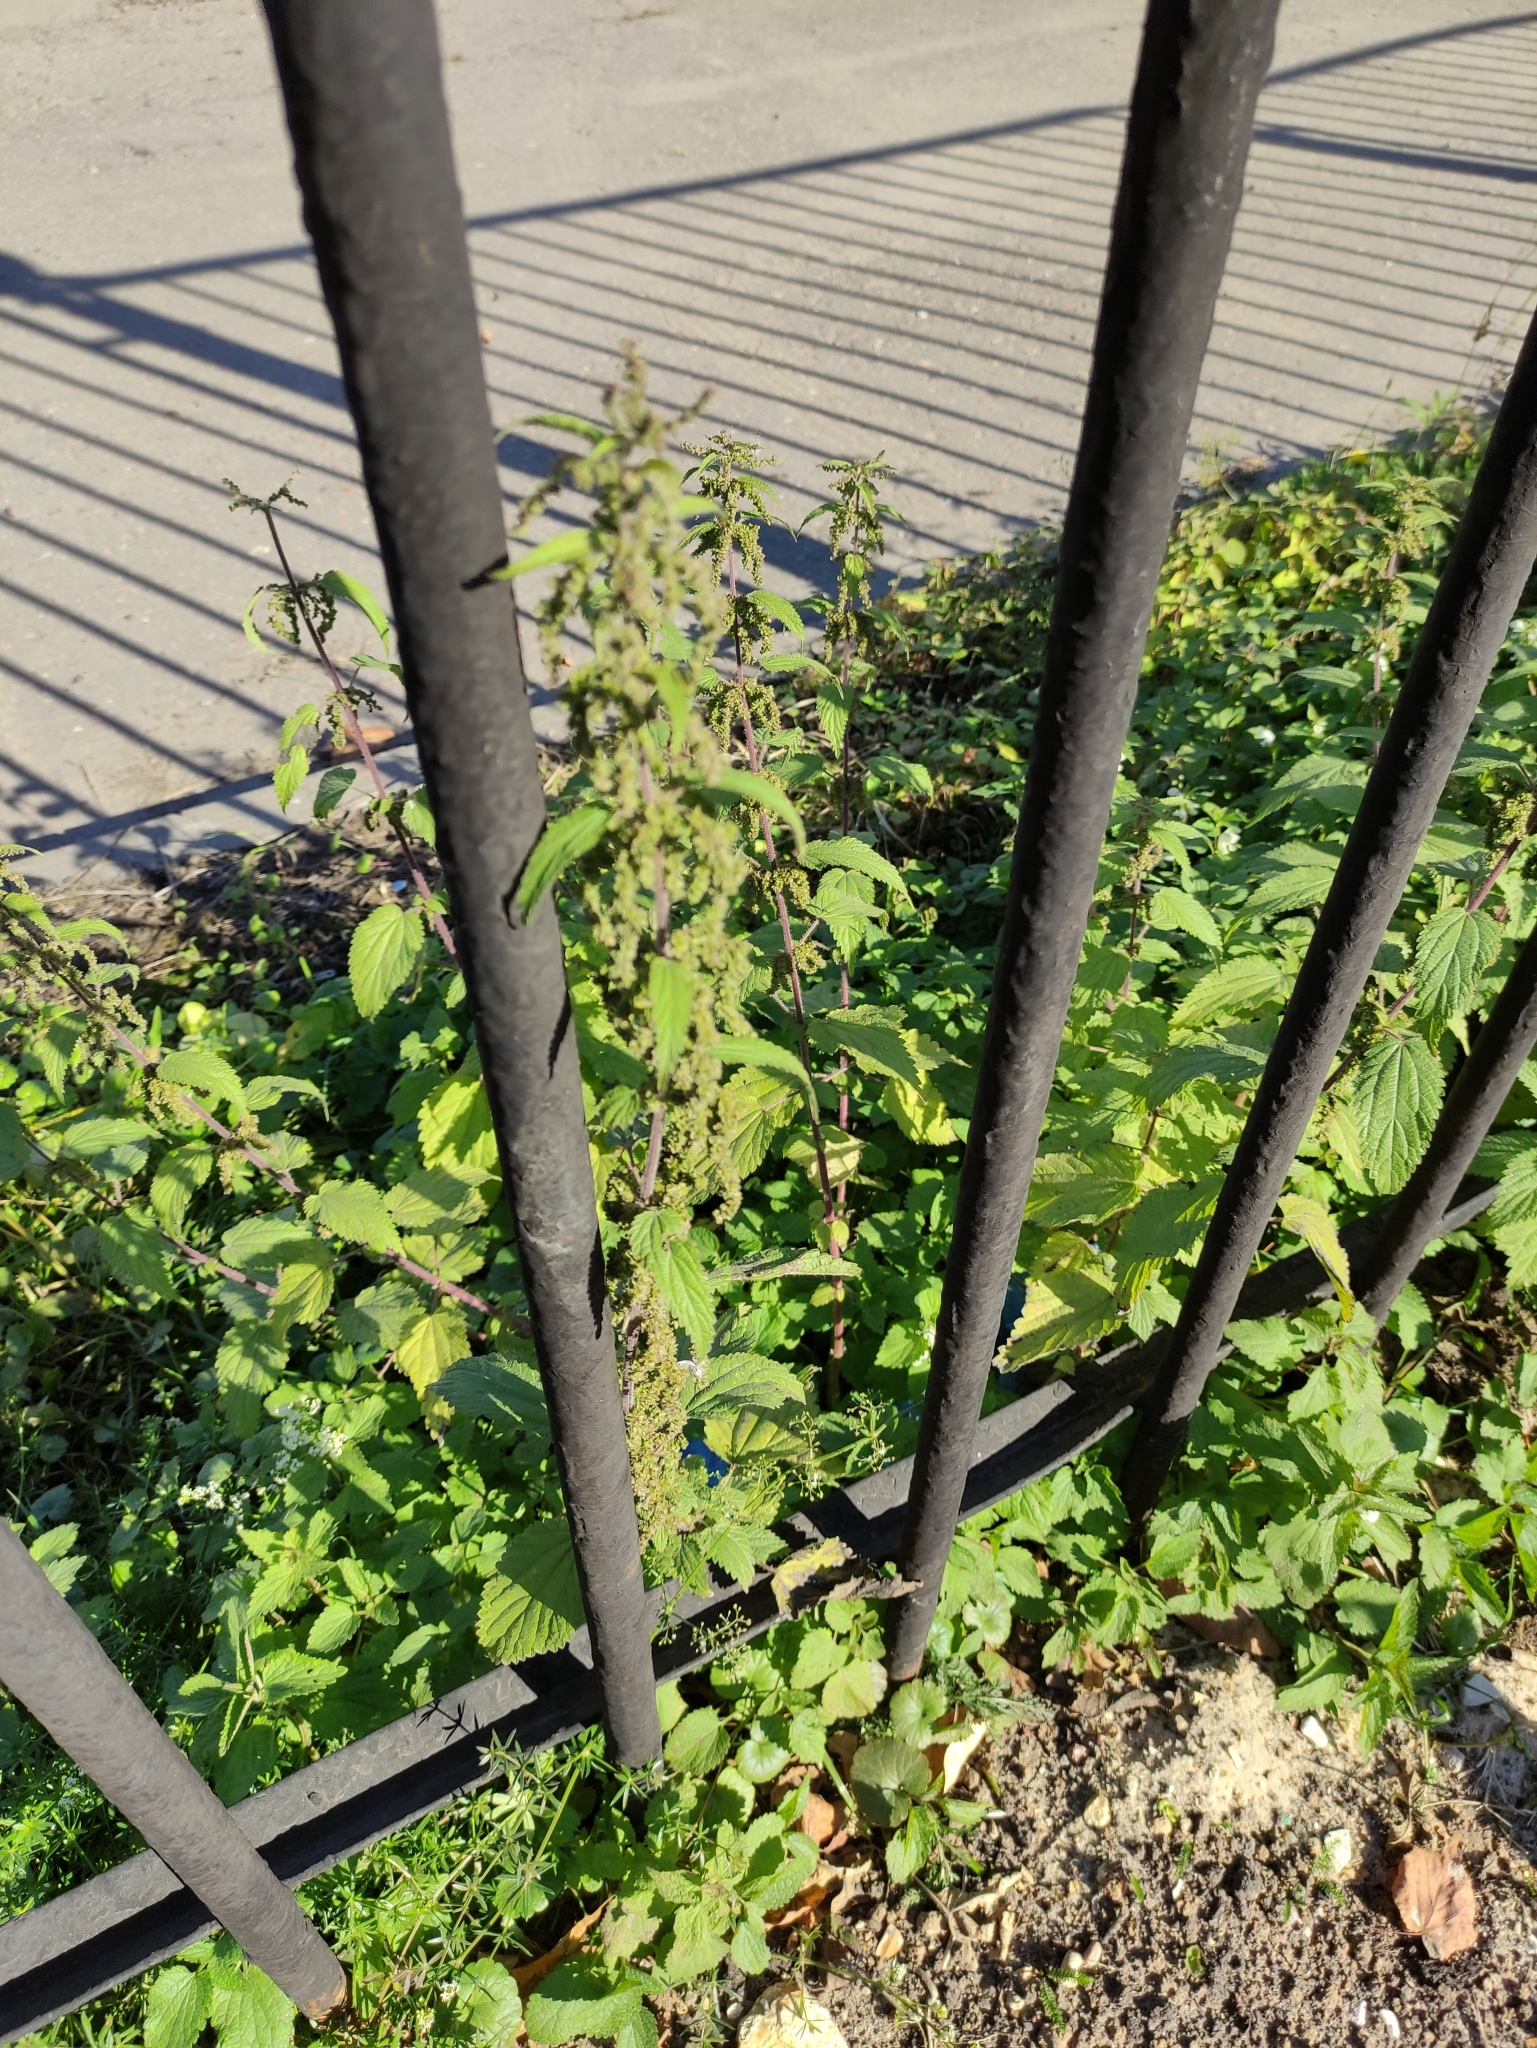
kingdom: Plantae
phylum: Tracheophyta
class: Magnoliopsida
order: Rosales
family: Urticaceae
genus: Urtica
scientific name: Urtica dioica
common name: Common nettle
